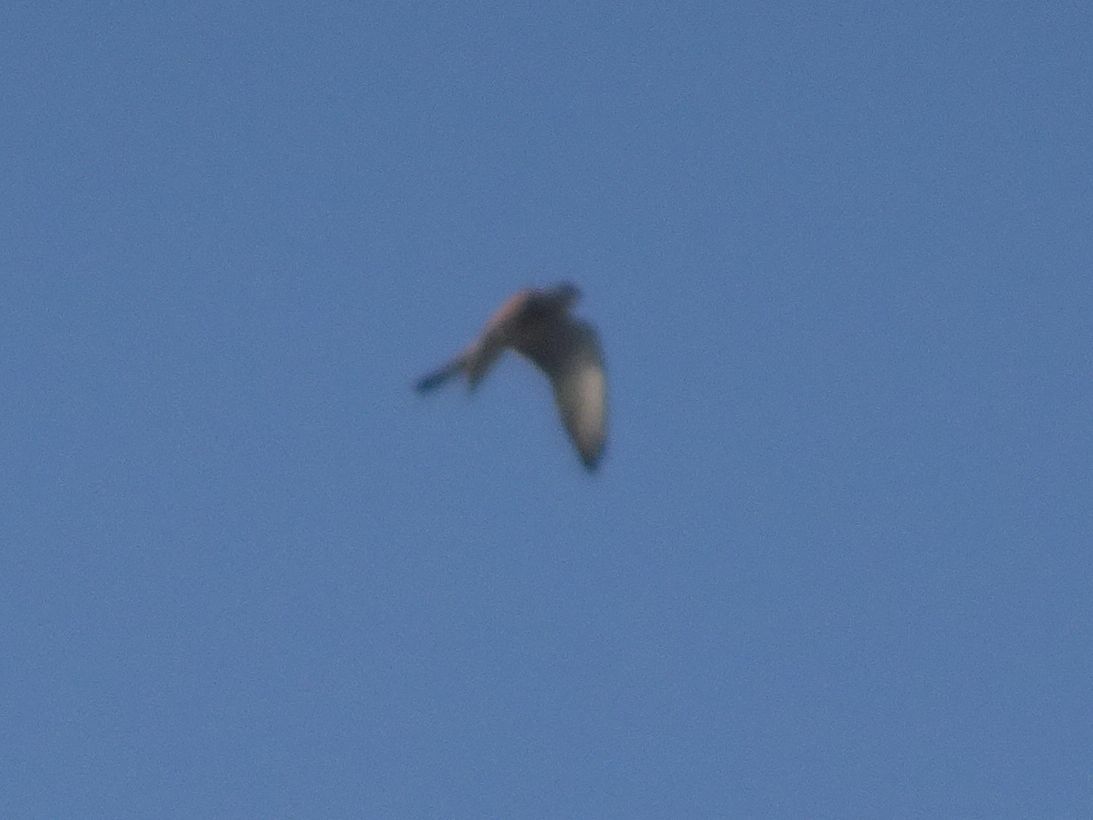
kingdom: Animalia
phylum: Chordata
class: Aves
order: Falconiformes
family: Falconidae
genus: Falco
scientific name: Falco tinnunculus
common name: Common kestrel
